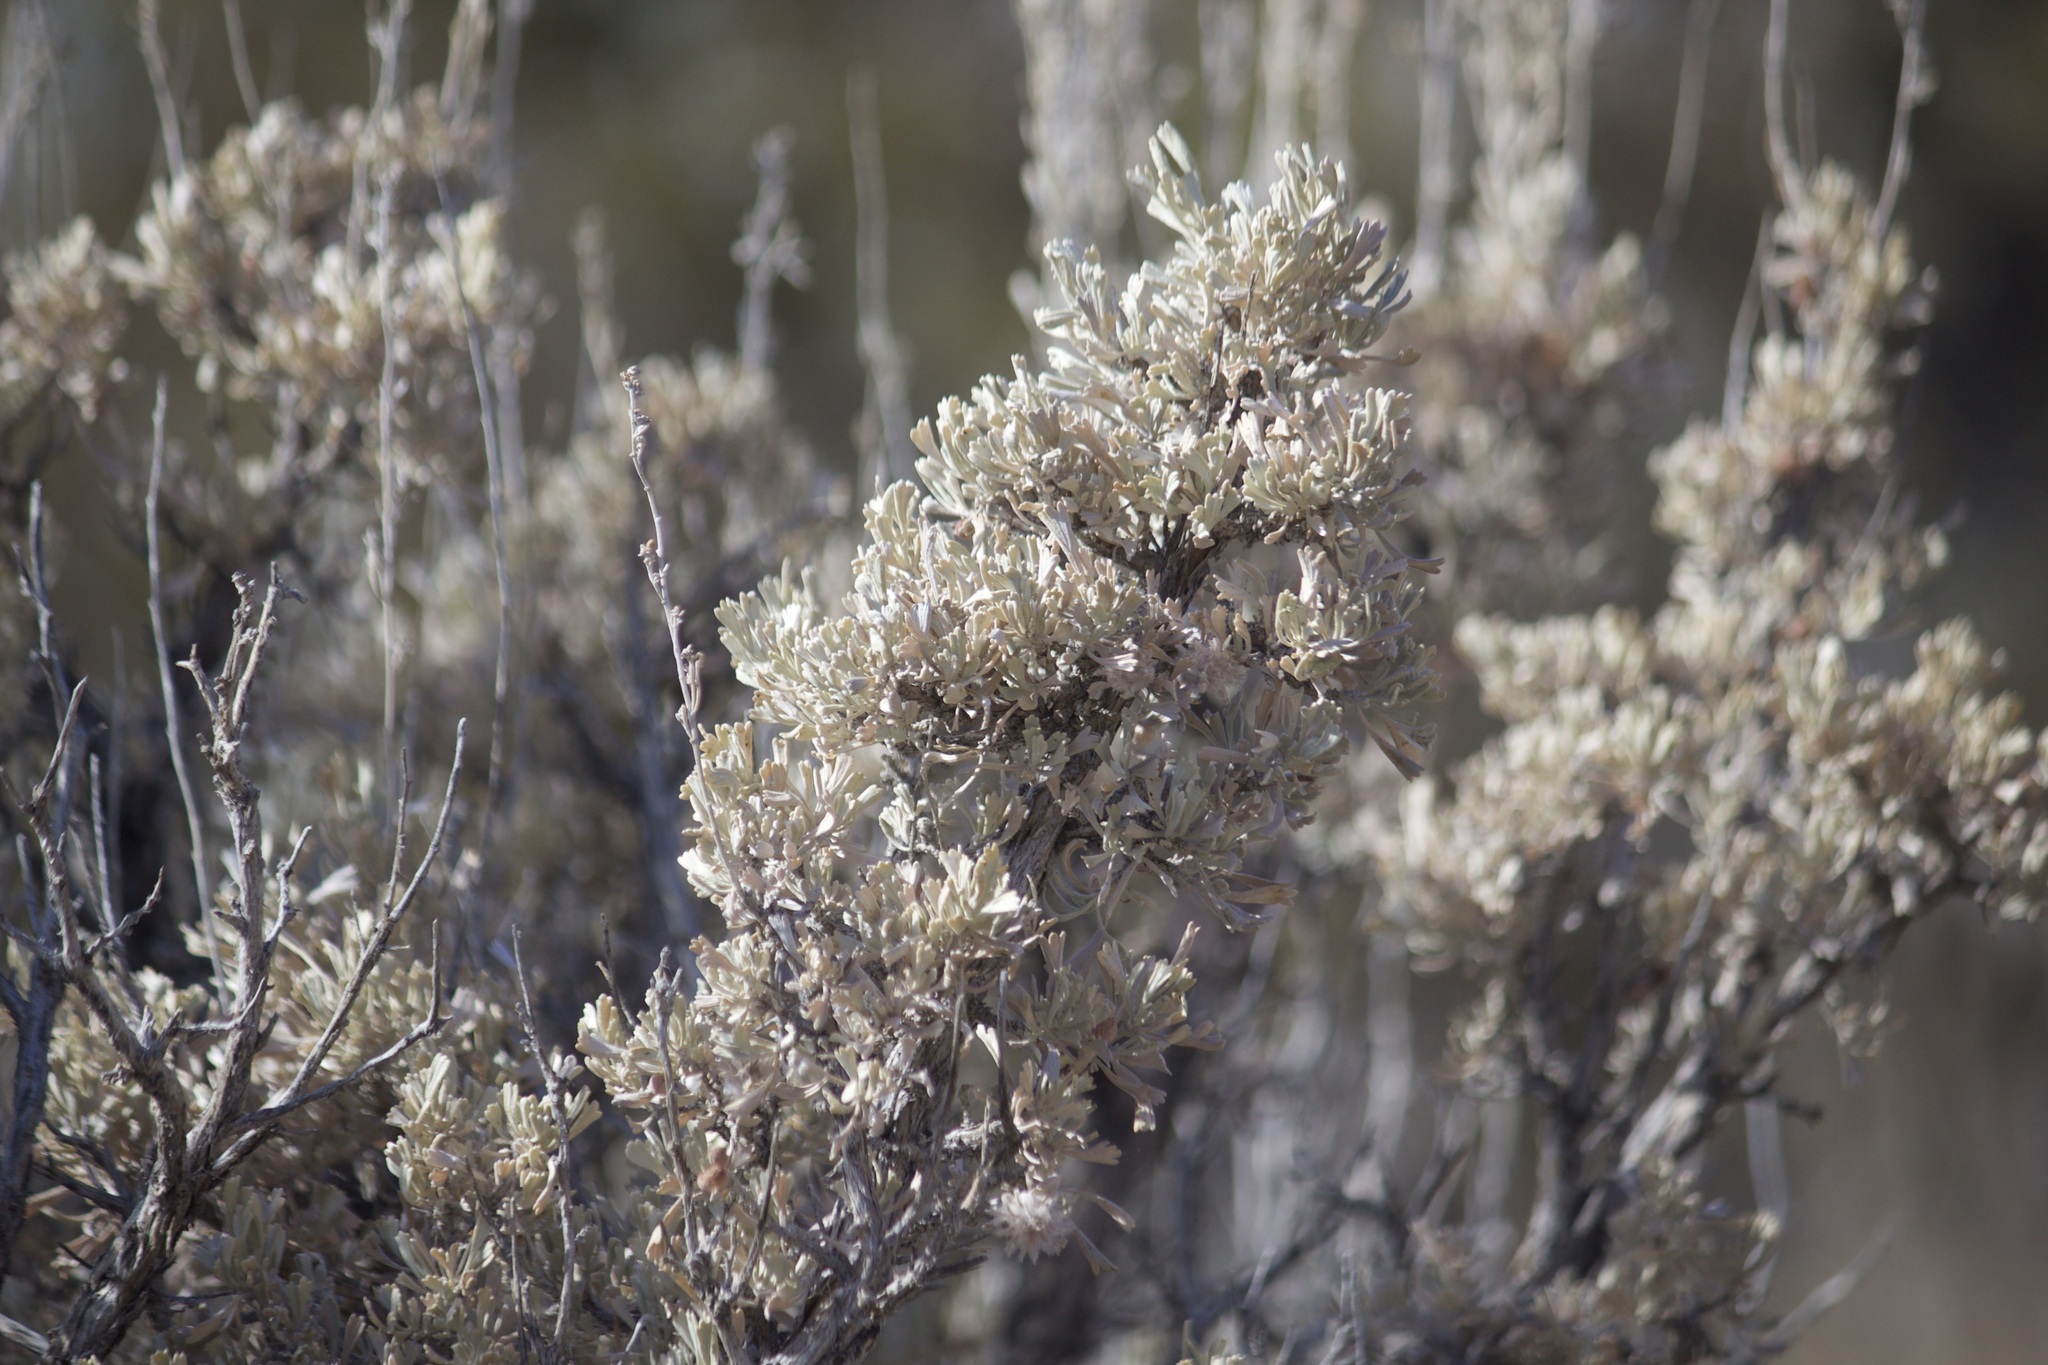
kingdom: Plantae
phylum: Tracheophyta
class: Magnoliopsida
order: Asterales
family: Asteraceae
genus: Artemisia
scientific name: Artemisia tridentata
